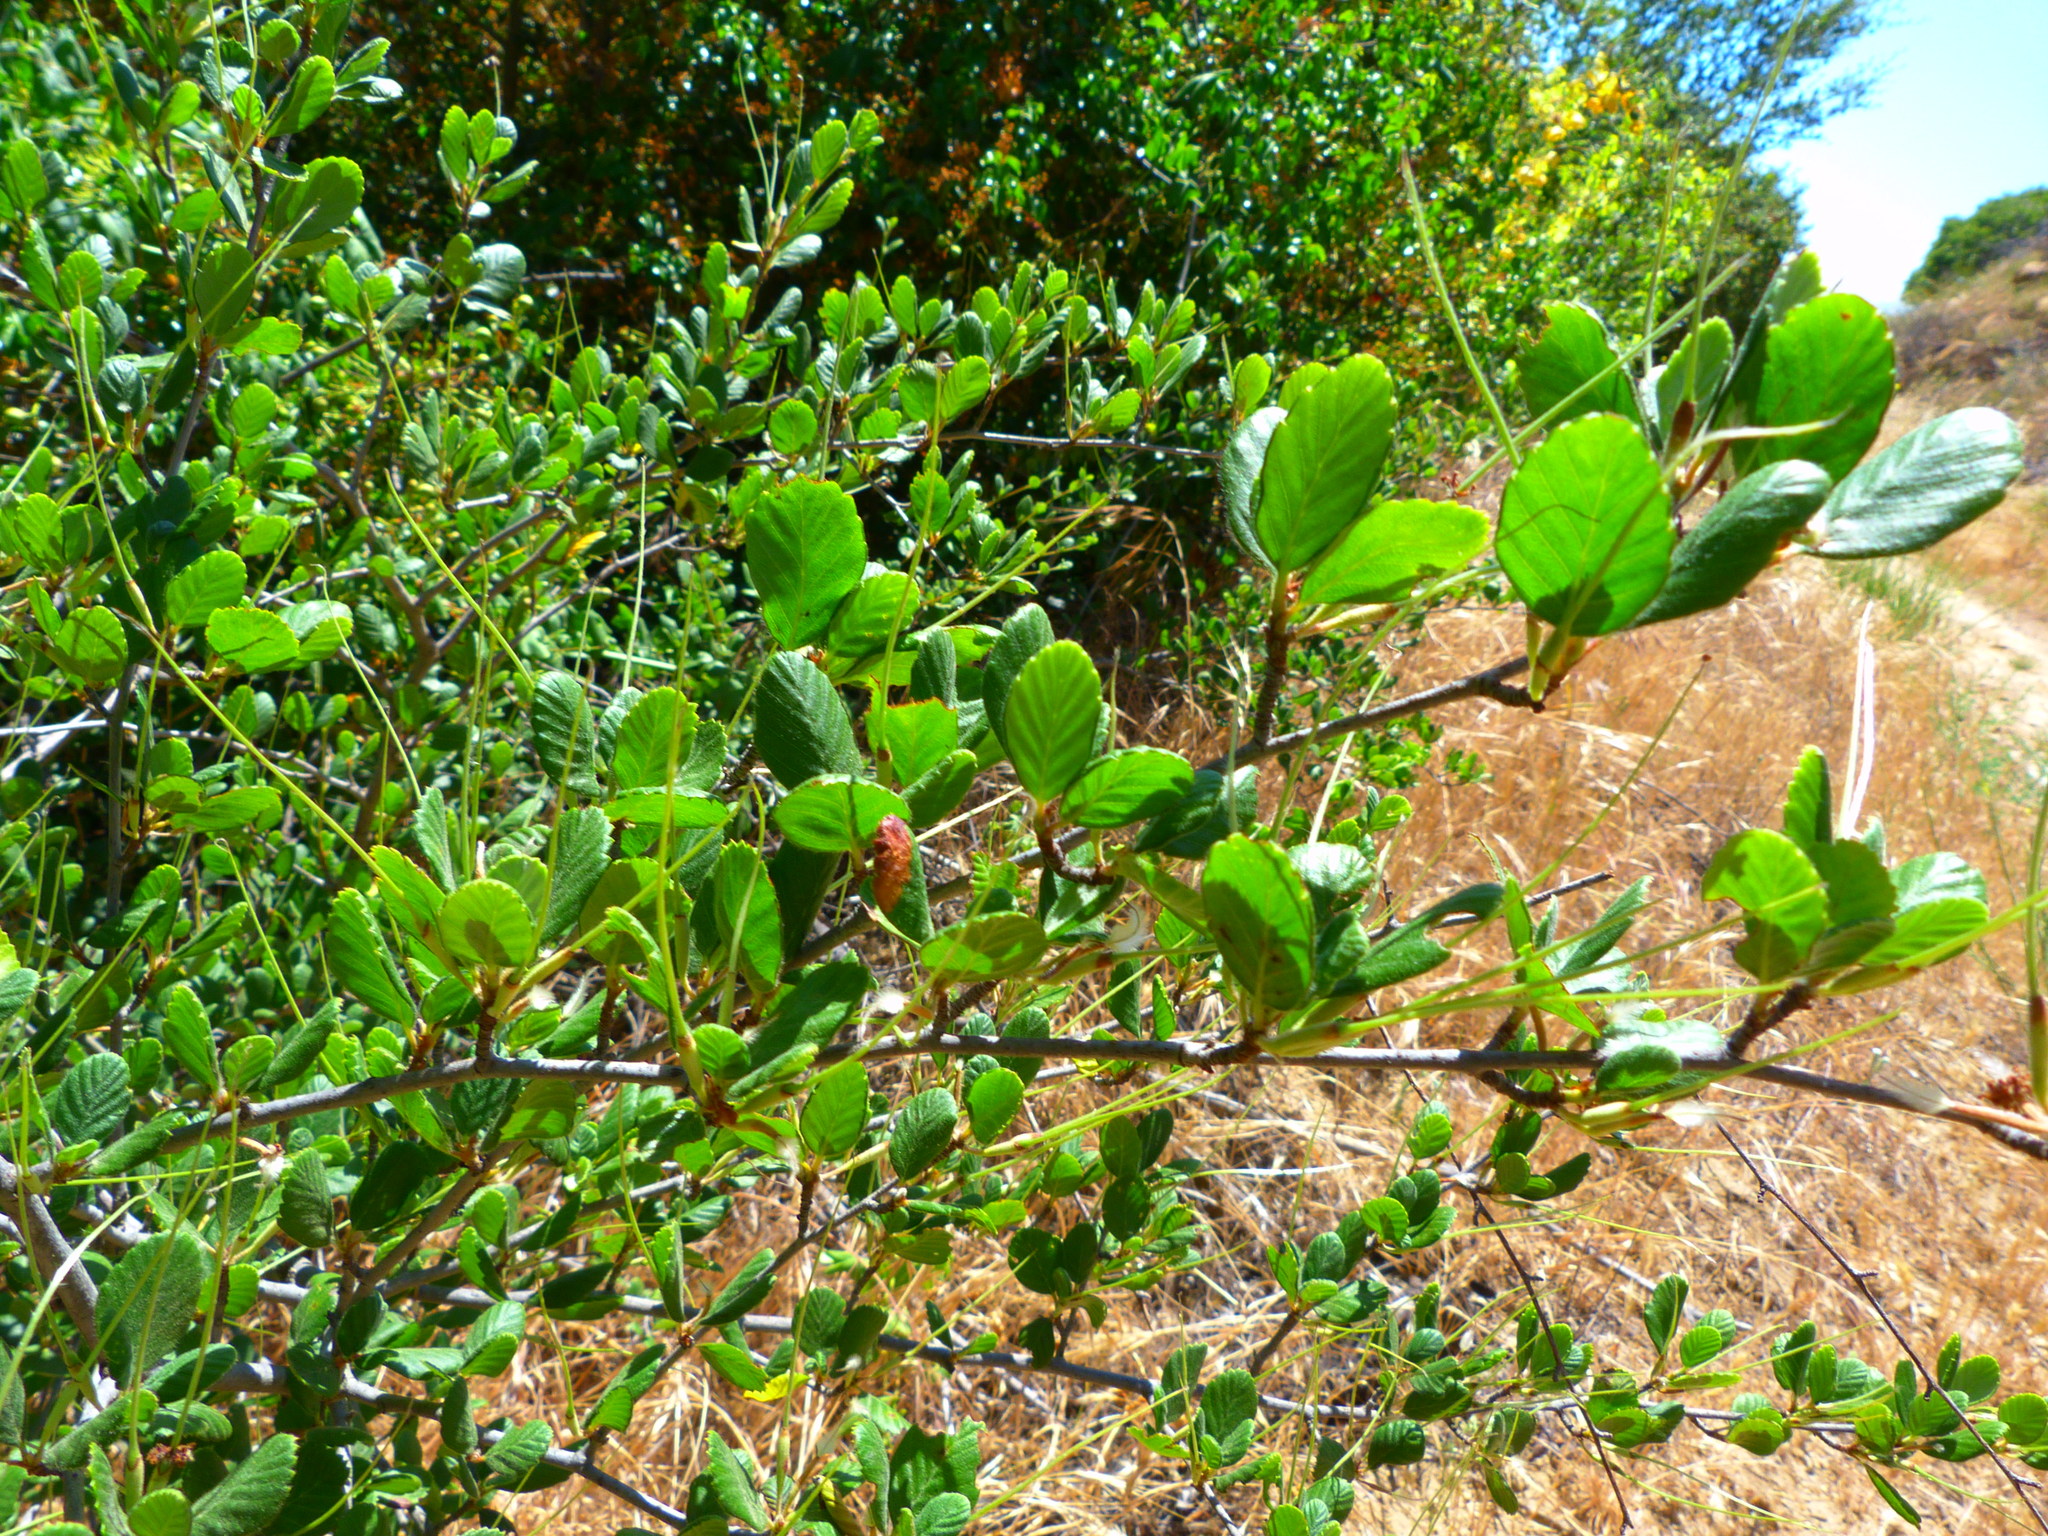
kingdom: Plantae
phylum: Tracheophyta
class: Magnoliopsida
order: Rosales
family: Rosaceae
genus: Cercocarpus
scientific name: Cercocarpus betuloides
